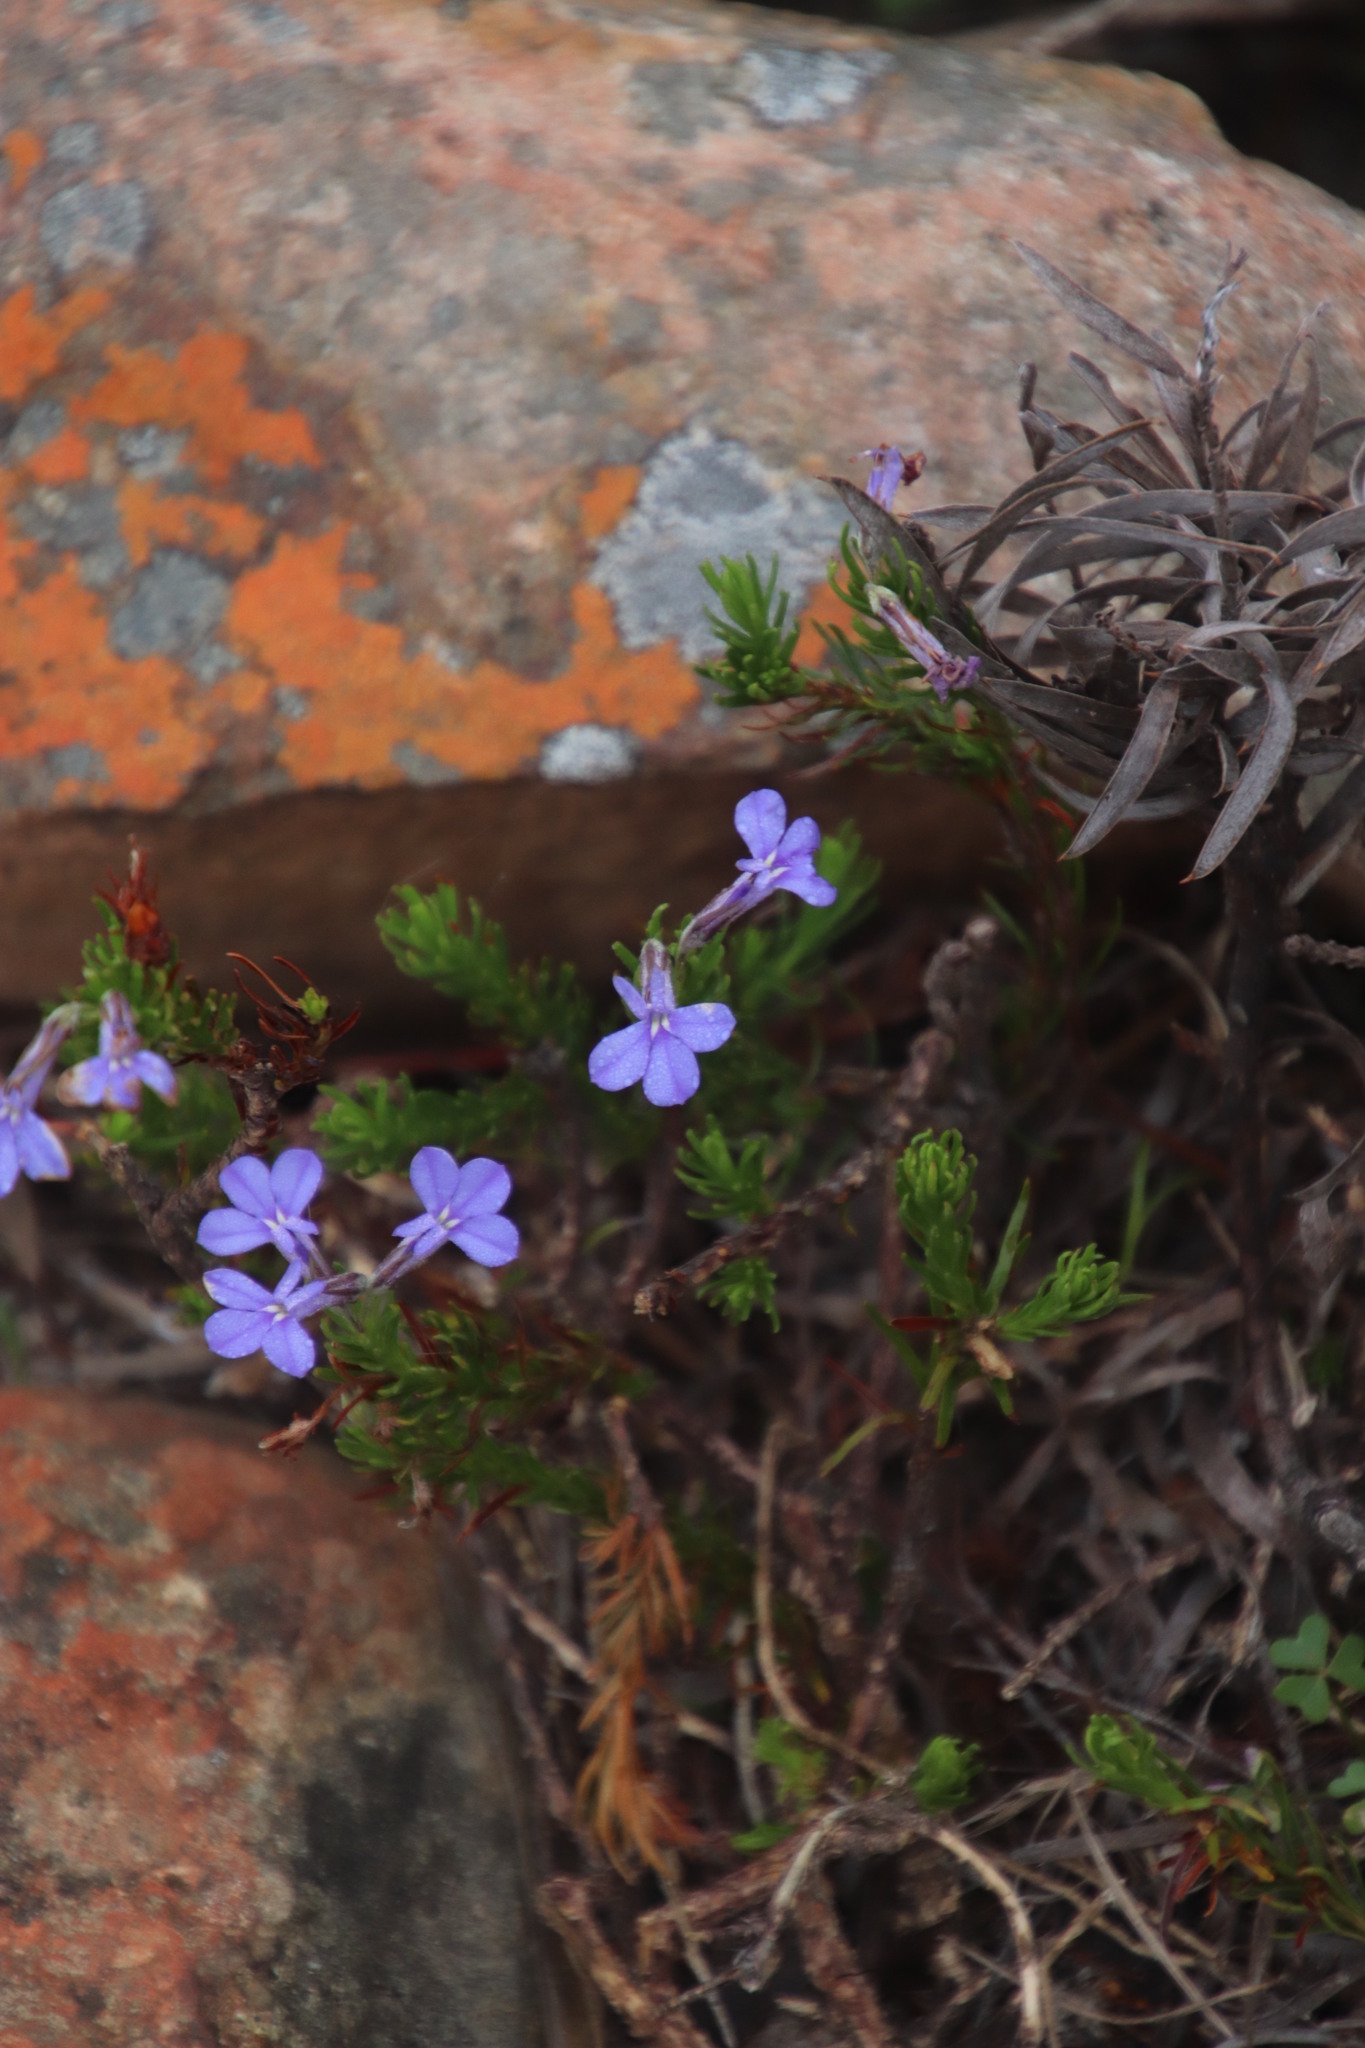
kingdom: Plantae
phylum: Tracheophyta
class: Magnoliopsida
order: Asterales
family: Campanulaceae
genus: Lobelia
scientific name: Lobelia pinifolia
